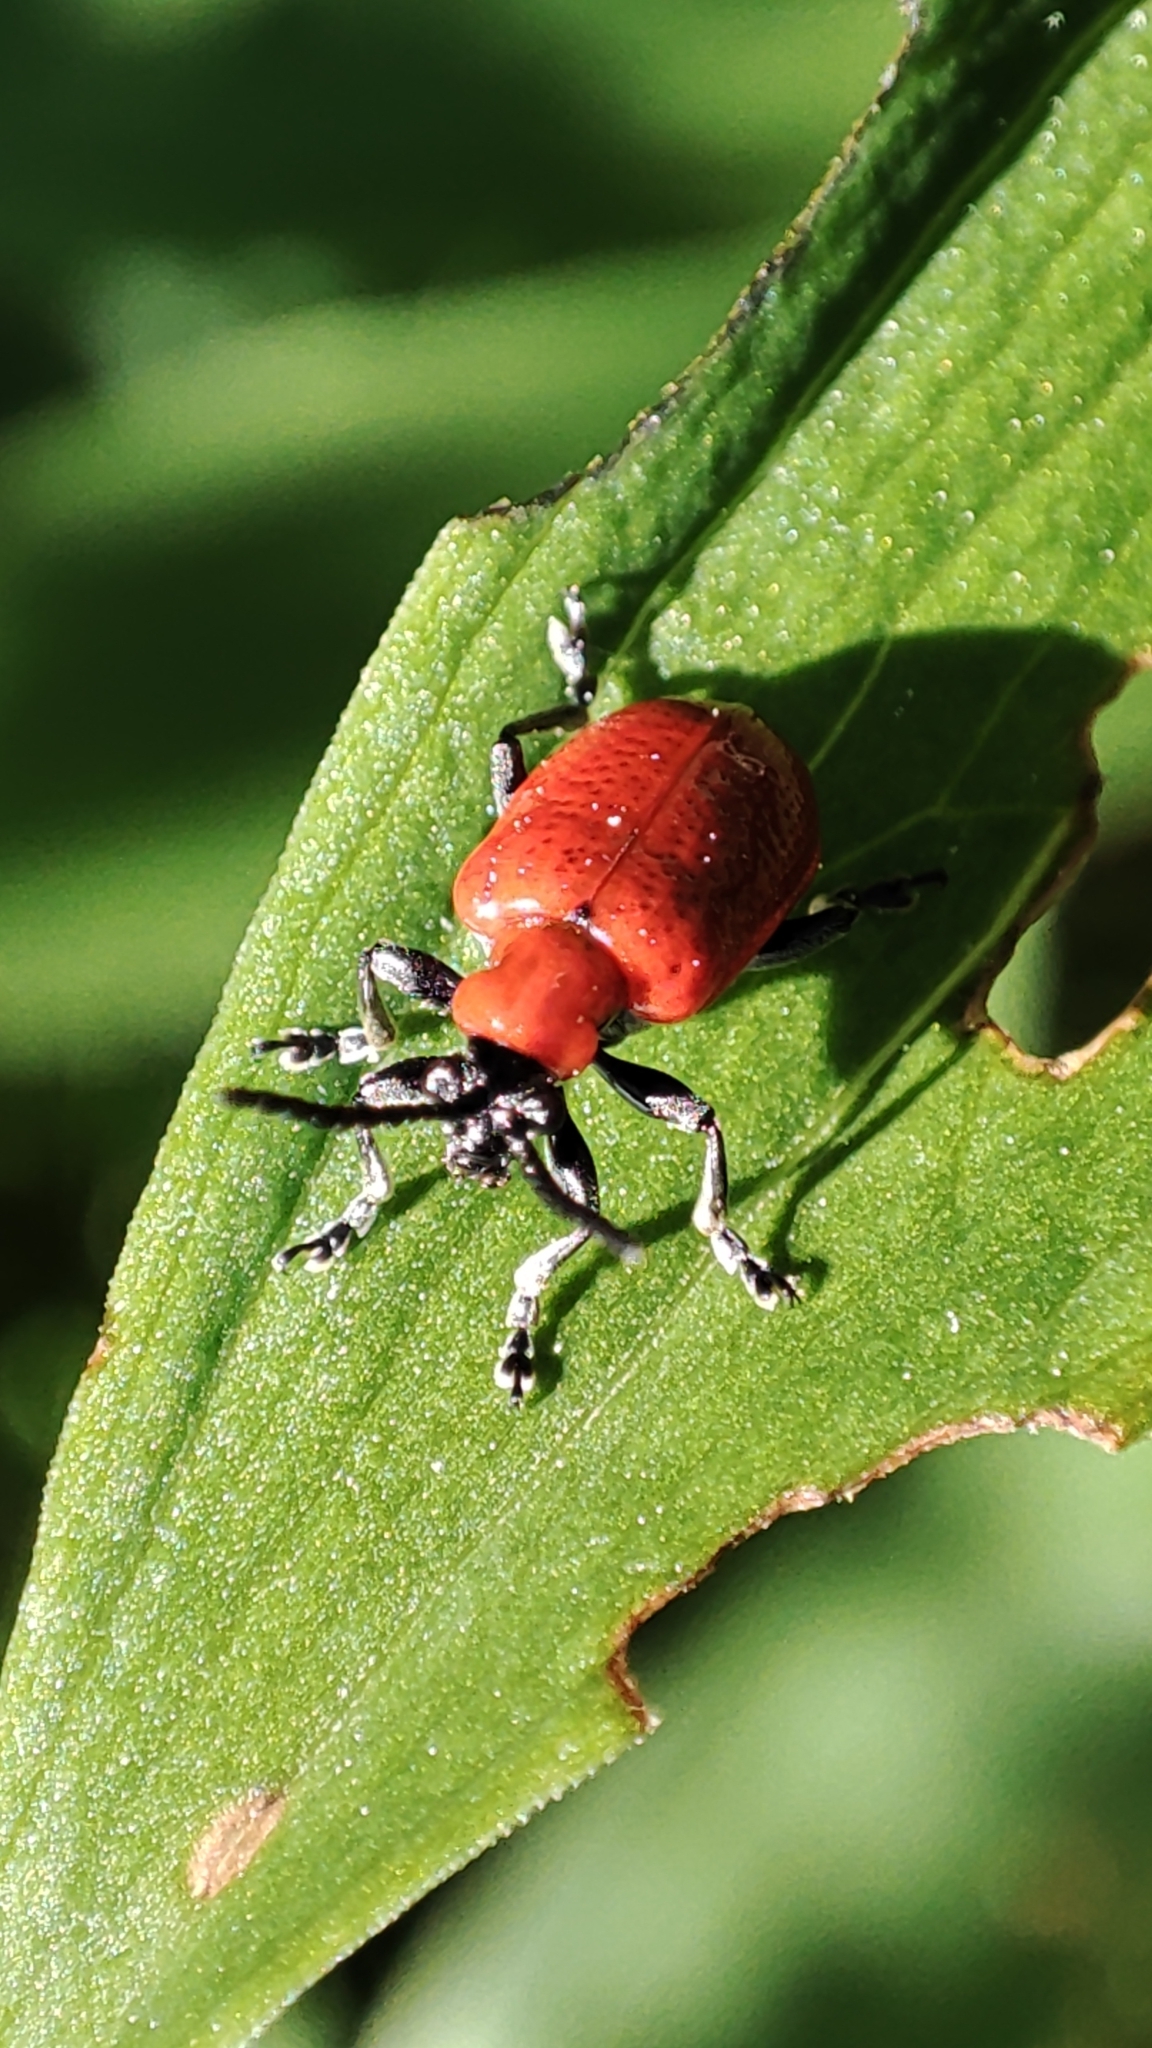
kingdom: Animalia
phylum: Arthropoda
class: Insecta
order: Coleoptera
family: Chrysomelidae
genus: Lilioceris
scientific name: Lilioceris lilii
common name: Lily beetle
